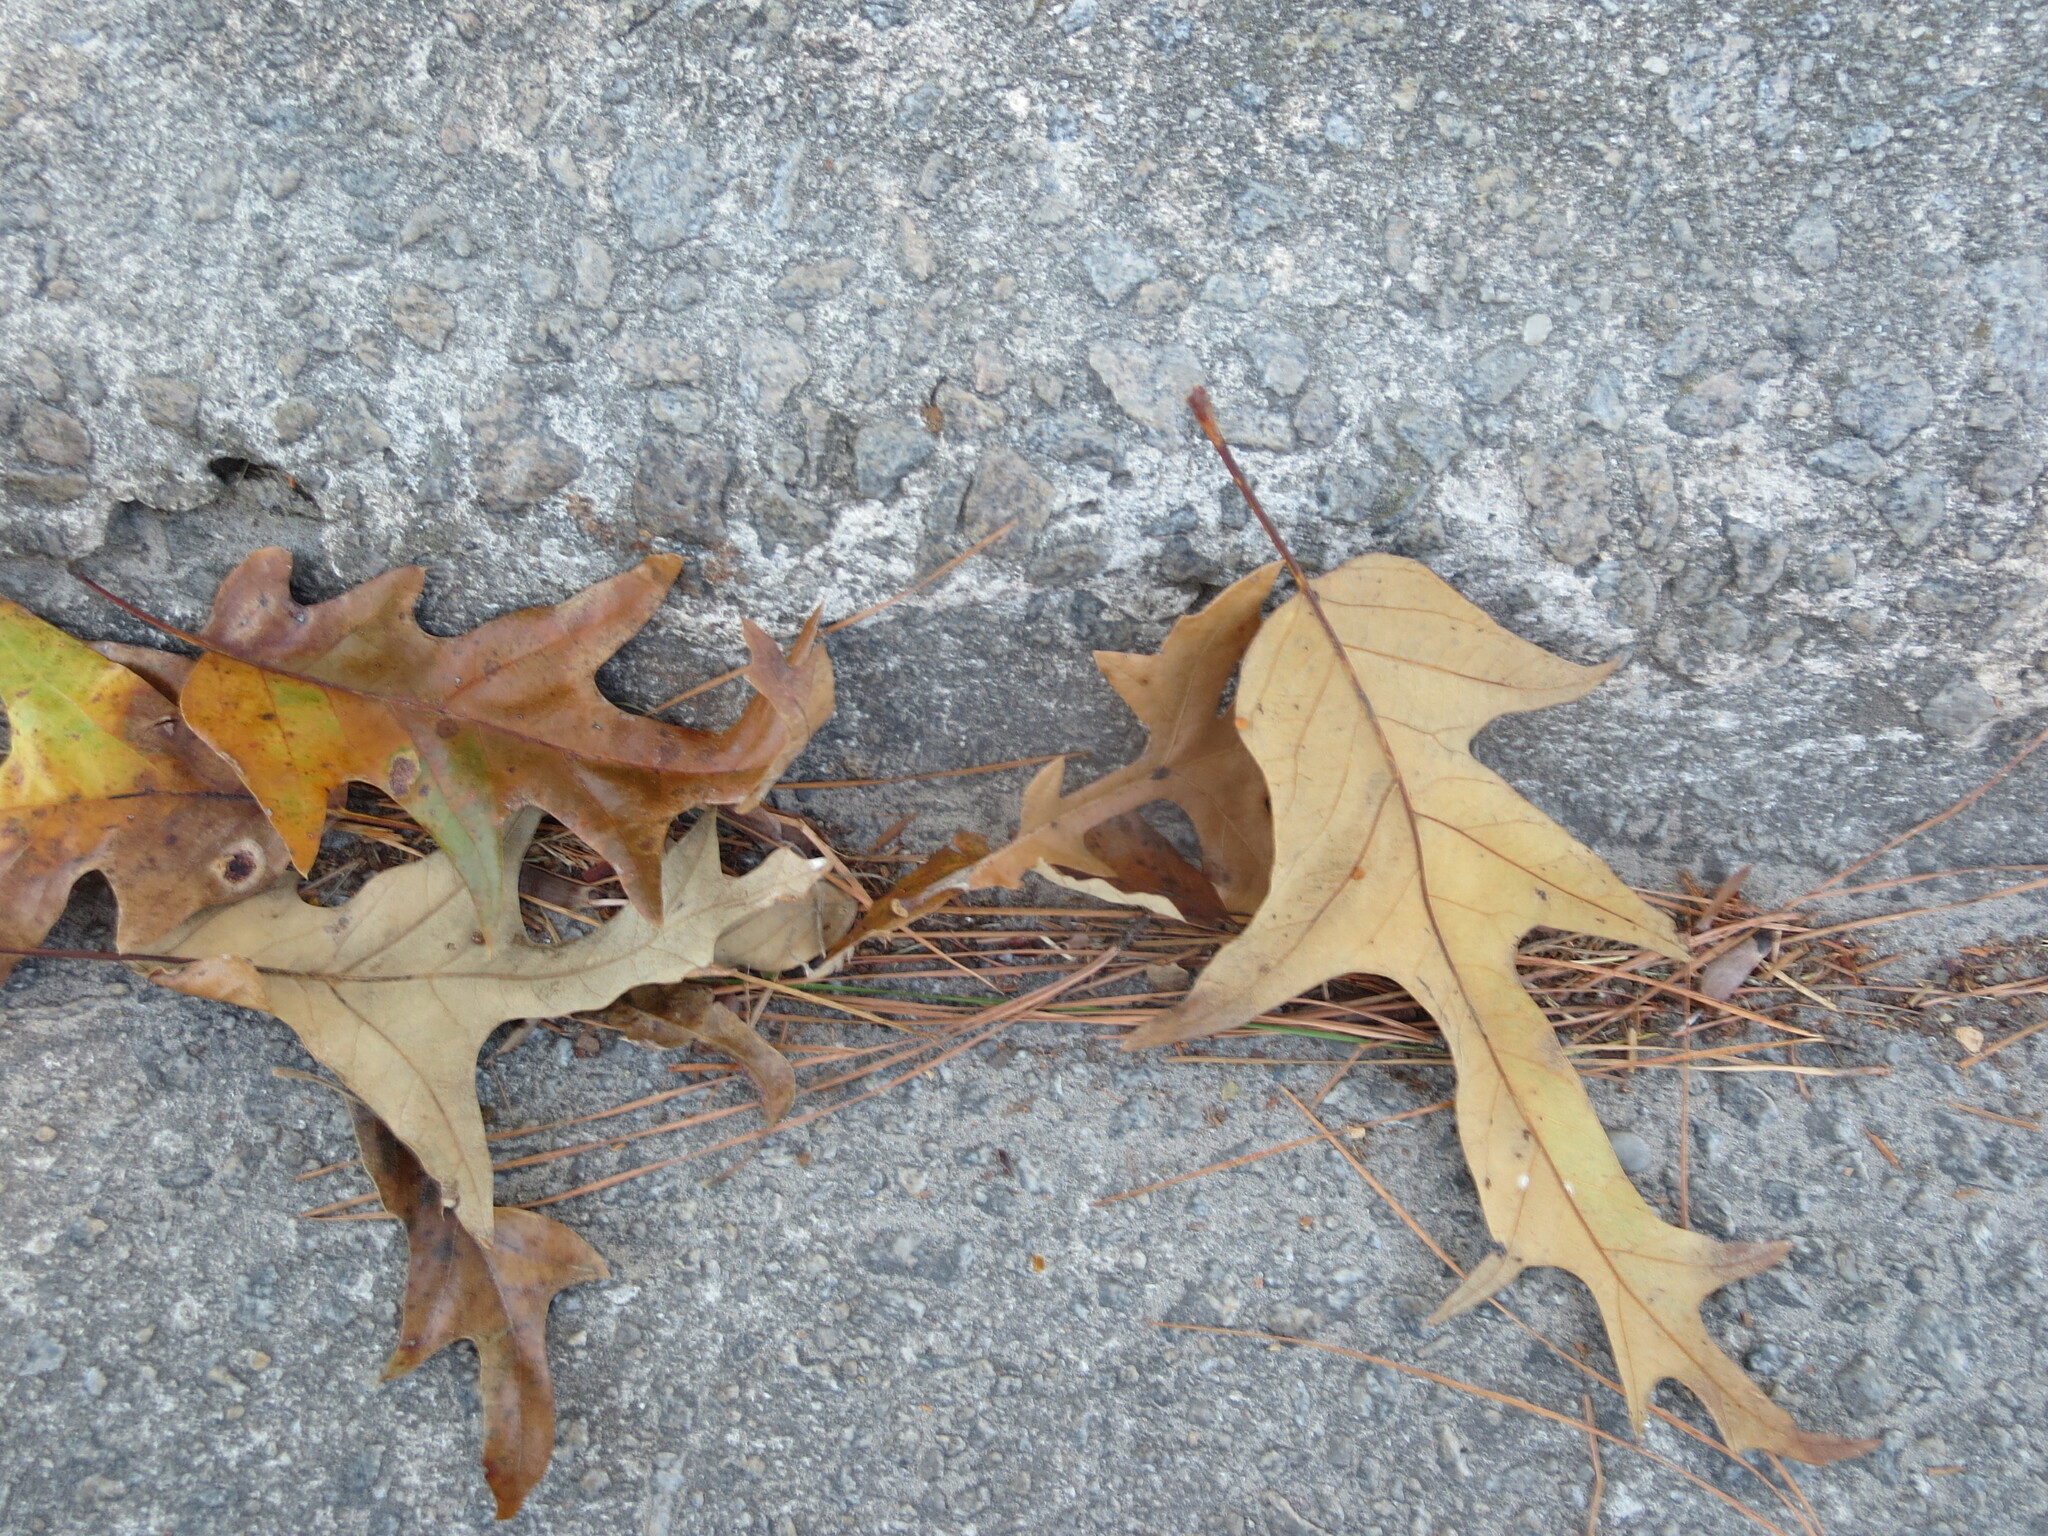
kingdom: Plantae
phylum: Tracheophyta
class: Magnoliopsida
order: Fagales
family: Fagaceae
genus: Quercus
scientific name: Quercus falcata
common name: Southern red oak
